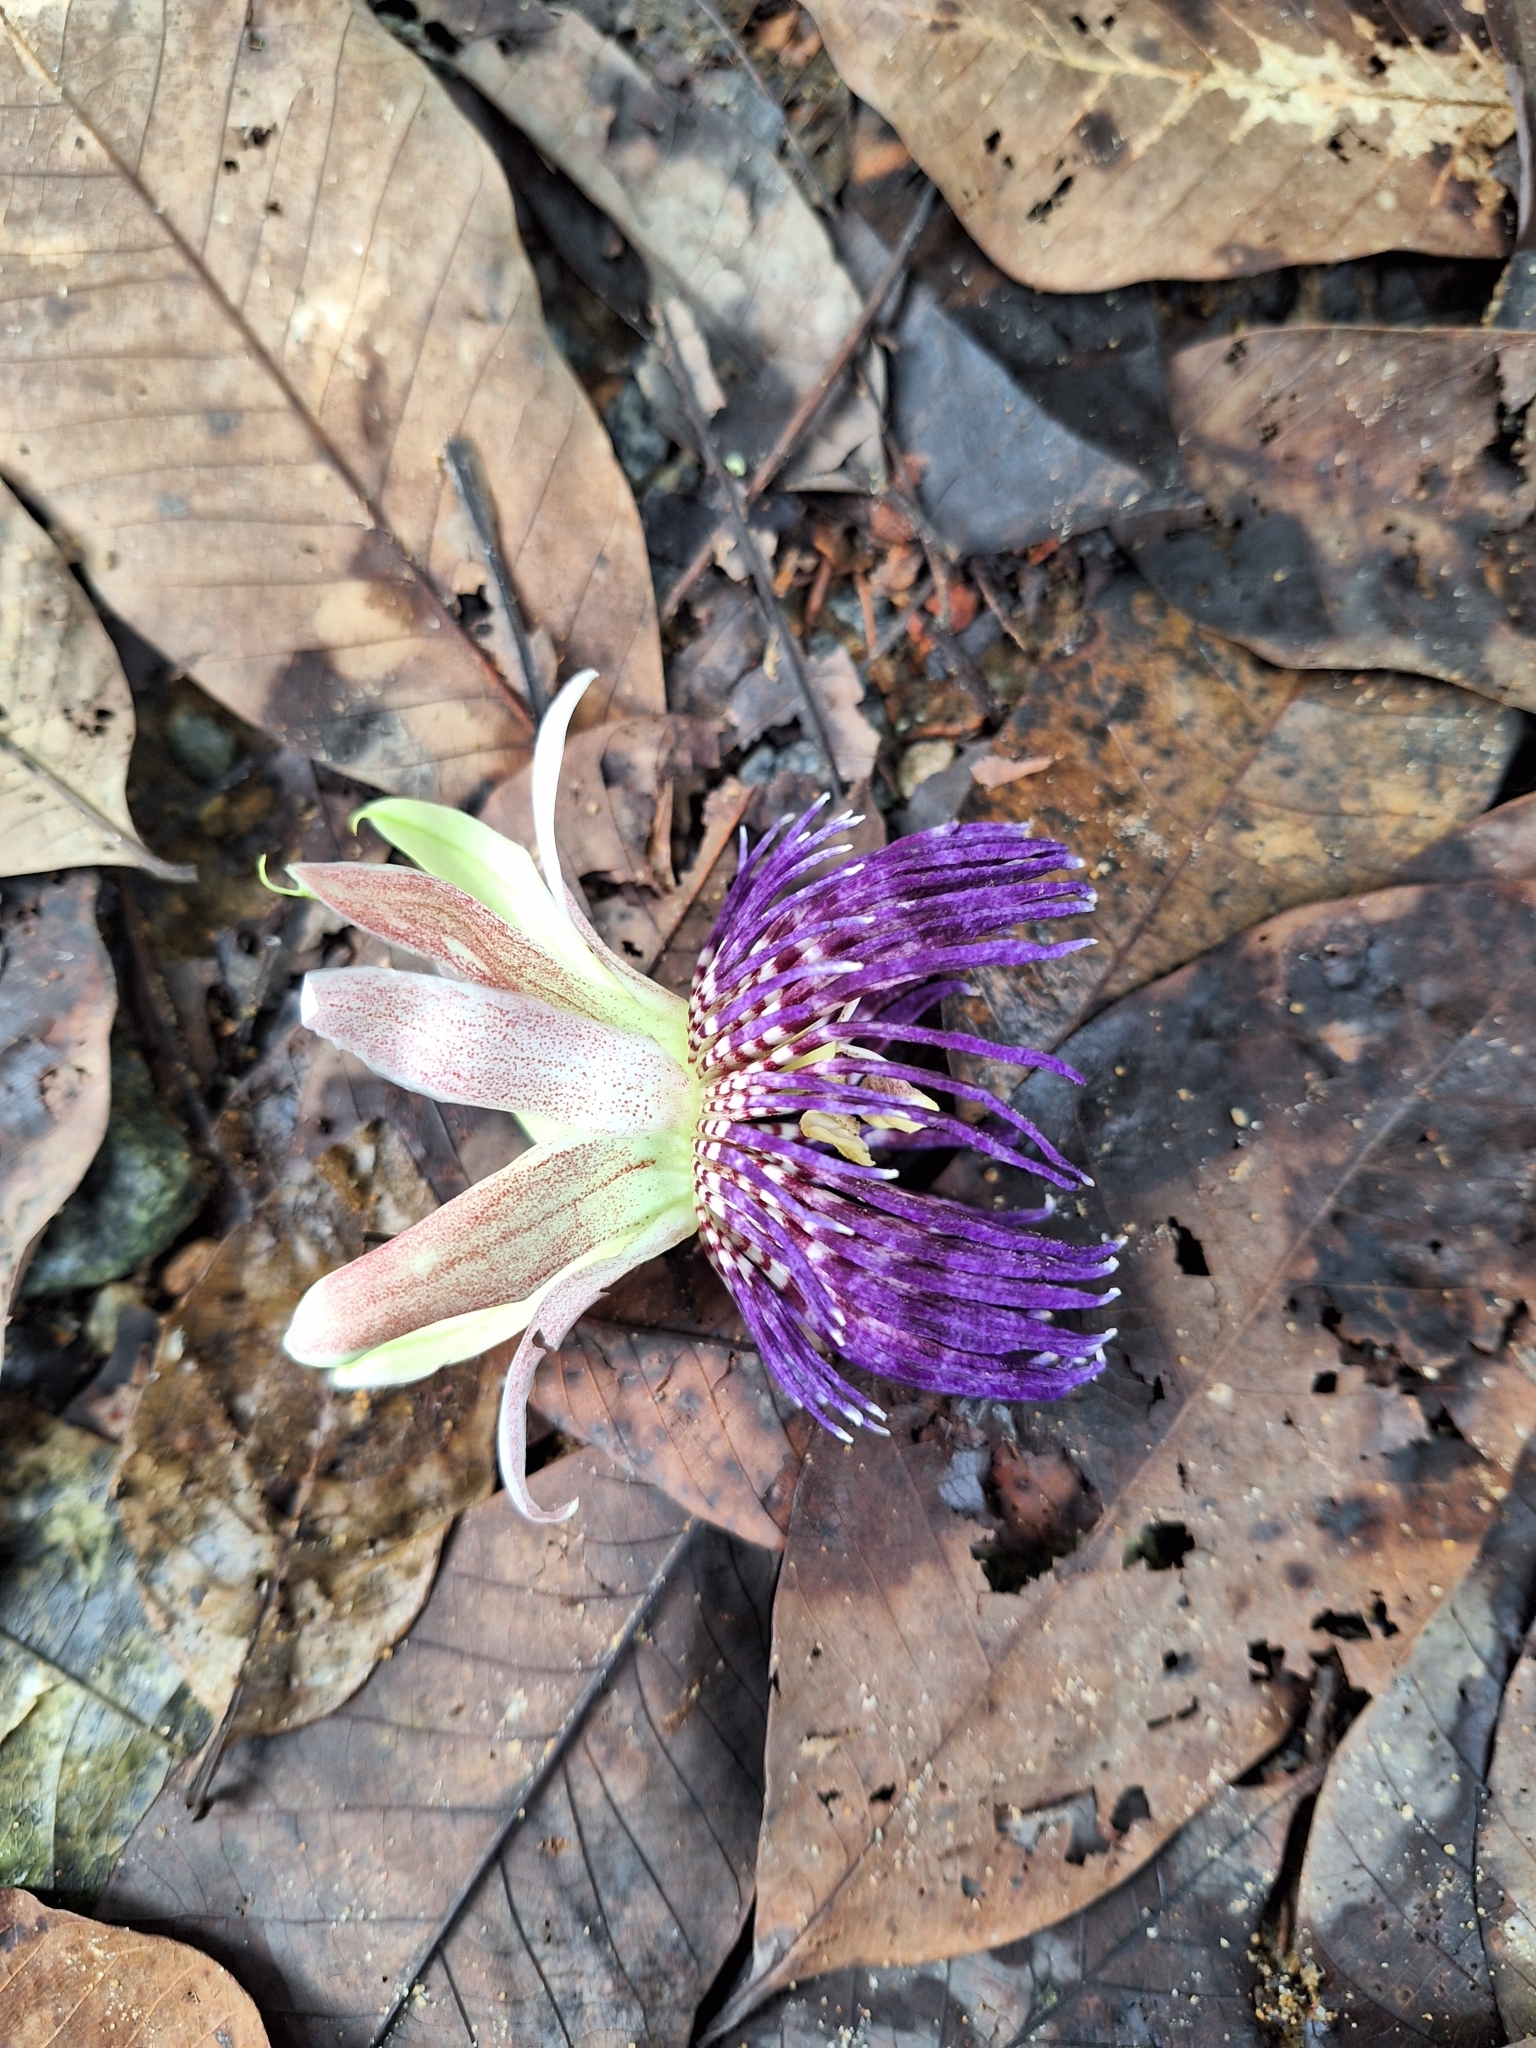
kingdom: Plantae
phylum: Tracheophyta
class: Magnoliopsida
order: Malpighiales
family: Passifloraceae
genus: Passiflora
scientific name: Passiflora laurifolia
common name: Bell apple
